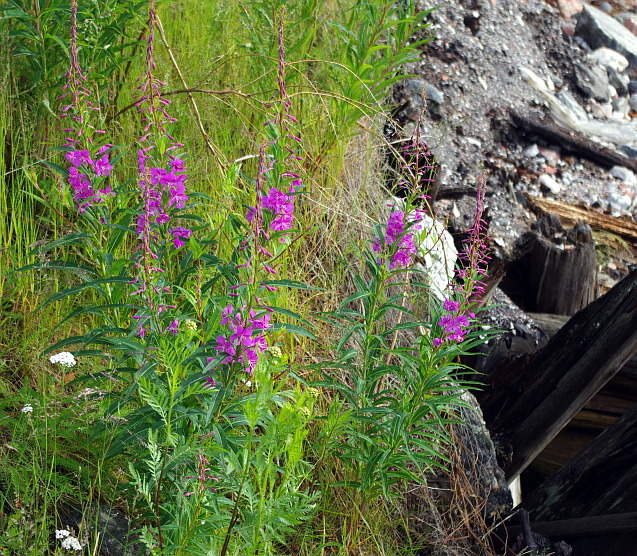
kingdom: Plantae
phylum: Tracheophyta
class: Magnoliopsida
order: Myrtales
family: Onagraceae
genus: Chamaenerion
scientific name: Chamaenerion angustifolium
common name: Fireweed
